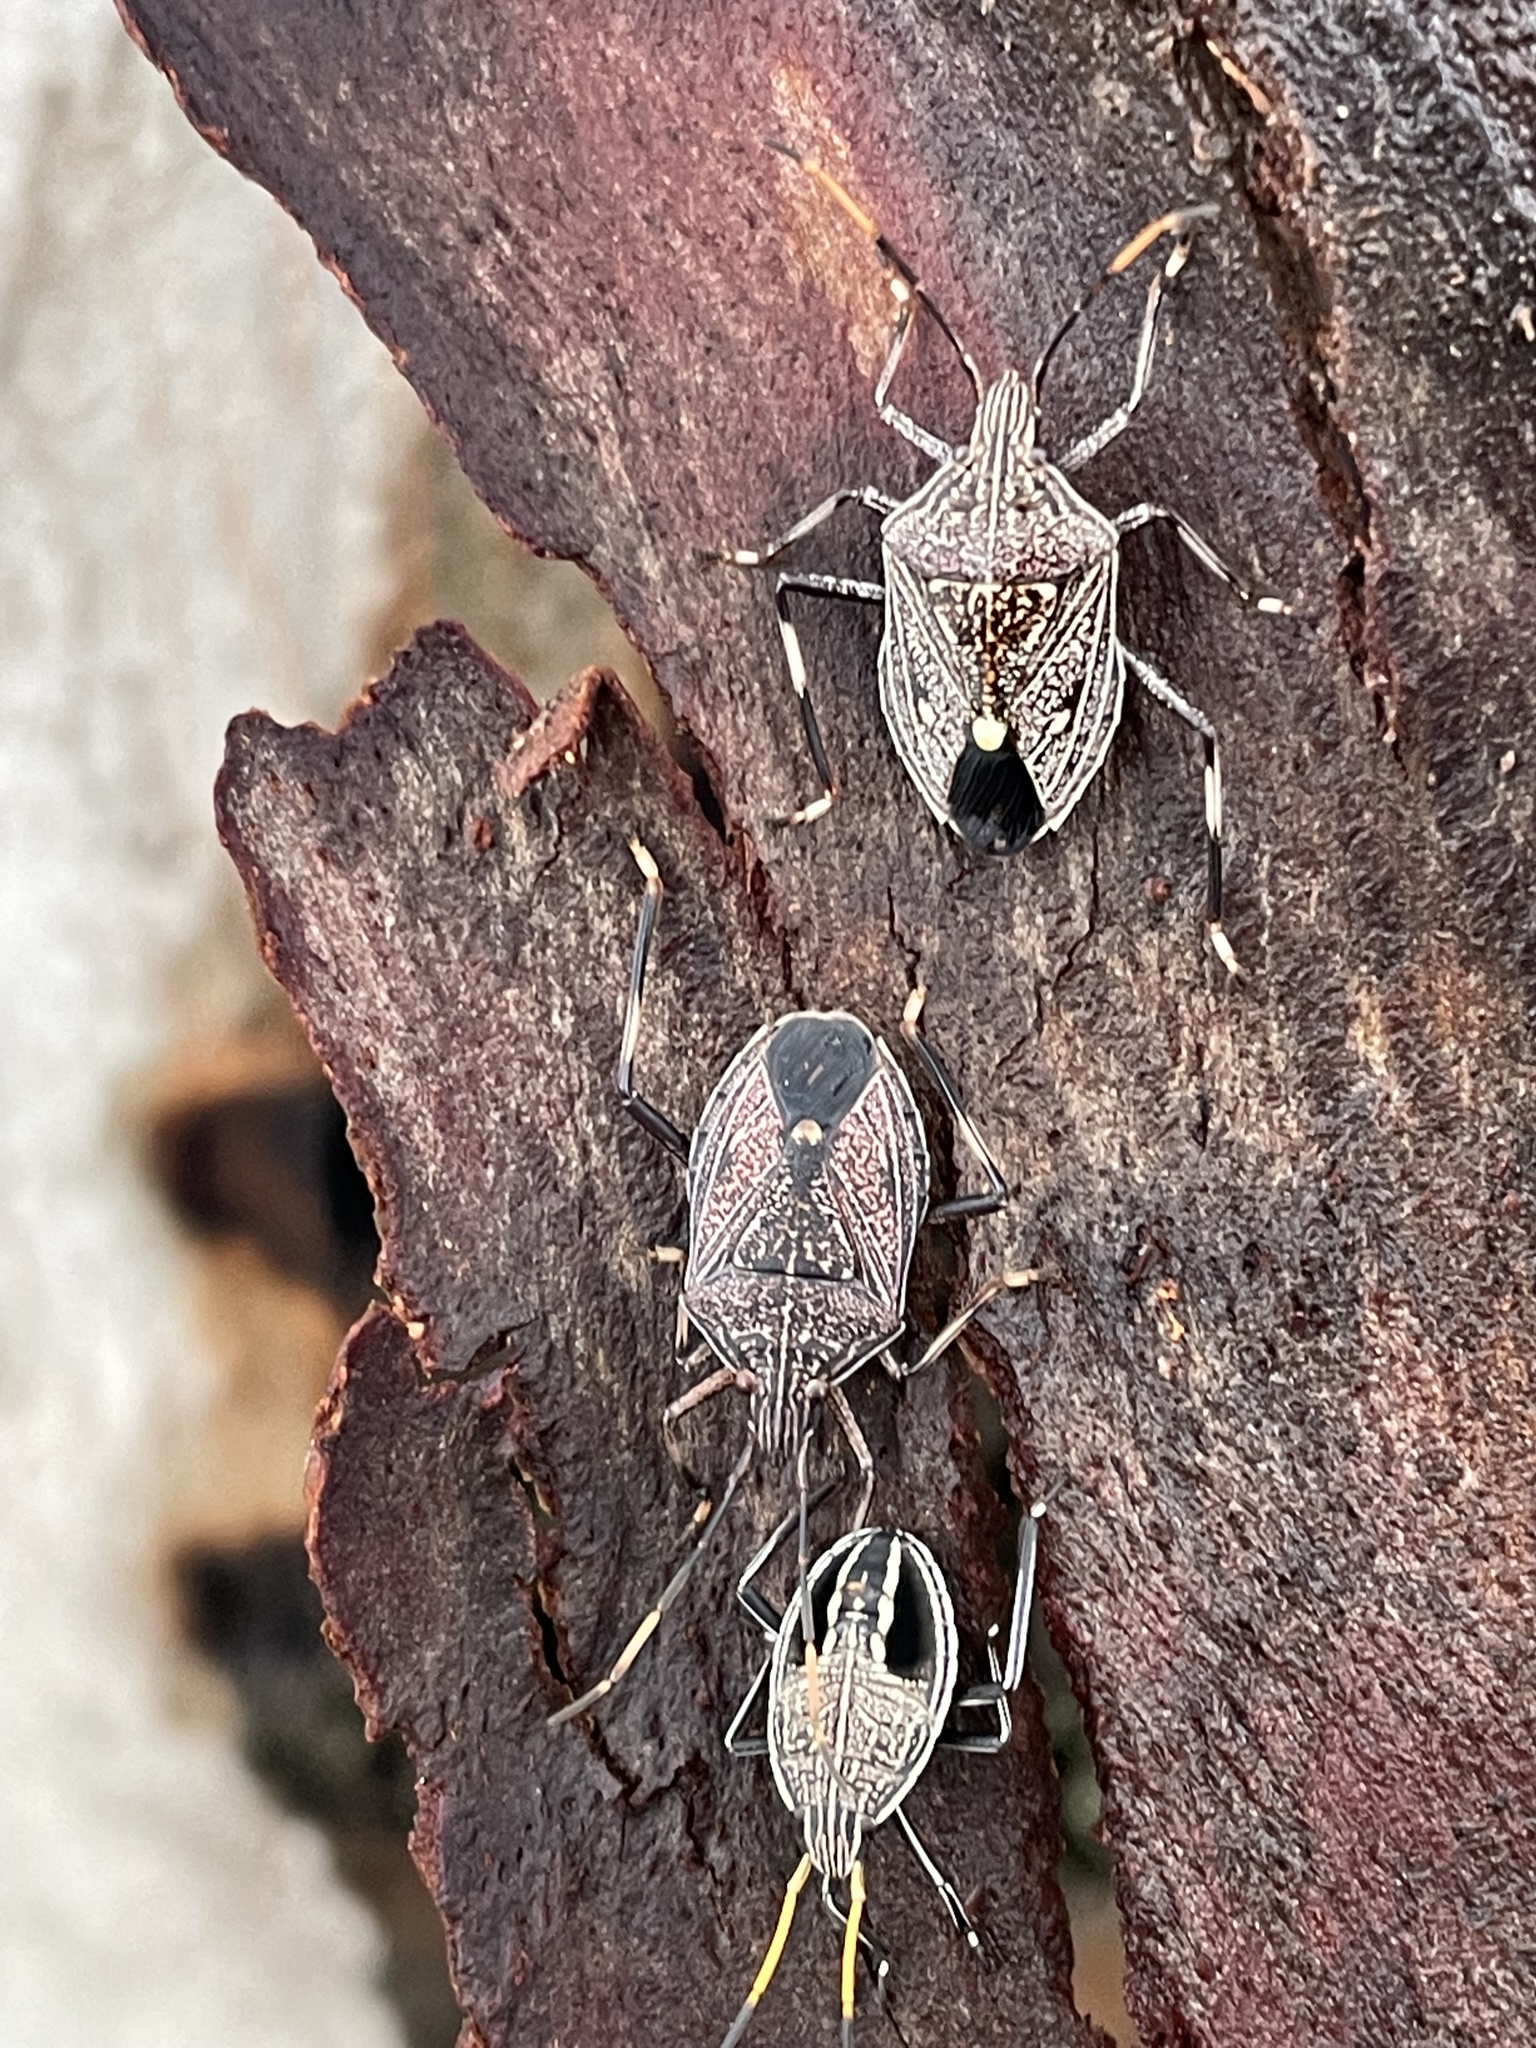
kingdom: Animalia
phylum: Arthropoda
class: Insecta
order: Hemiptera
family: Pentatomidae
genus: Theseus
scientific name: Theseus modestus
